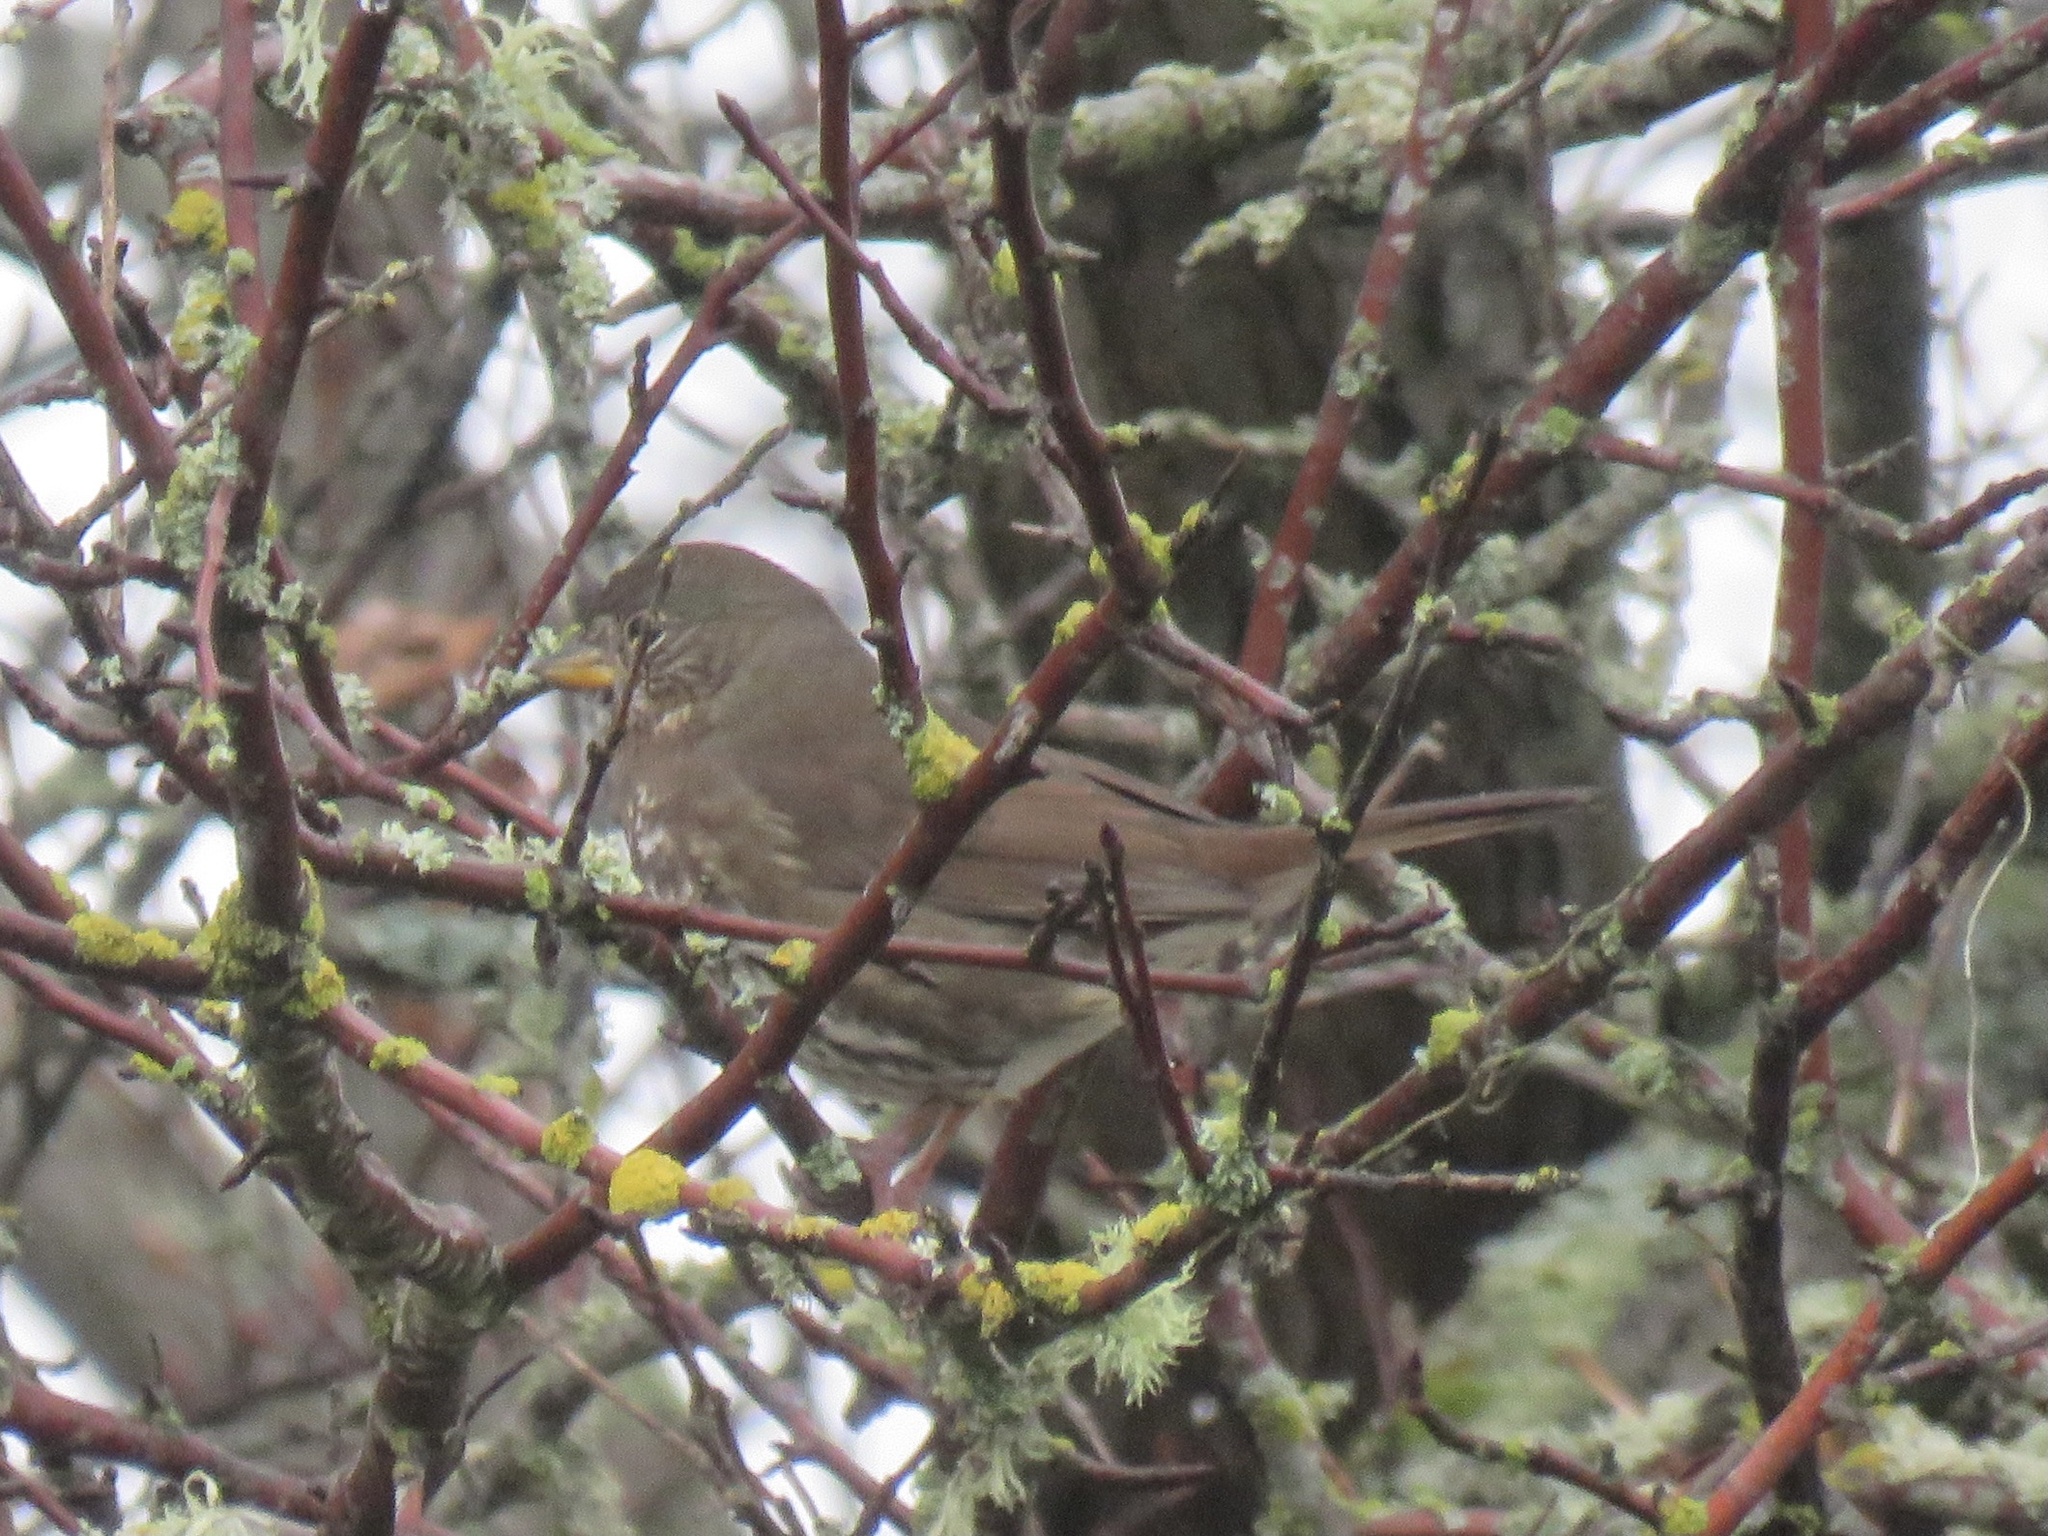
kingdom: Animalia
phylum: Chordata
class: Aves
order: Passeriformes
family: Passerellidae
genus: Passerella
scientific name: Passerella iliaca
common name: Fox sparrow
